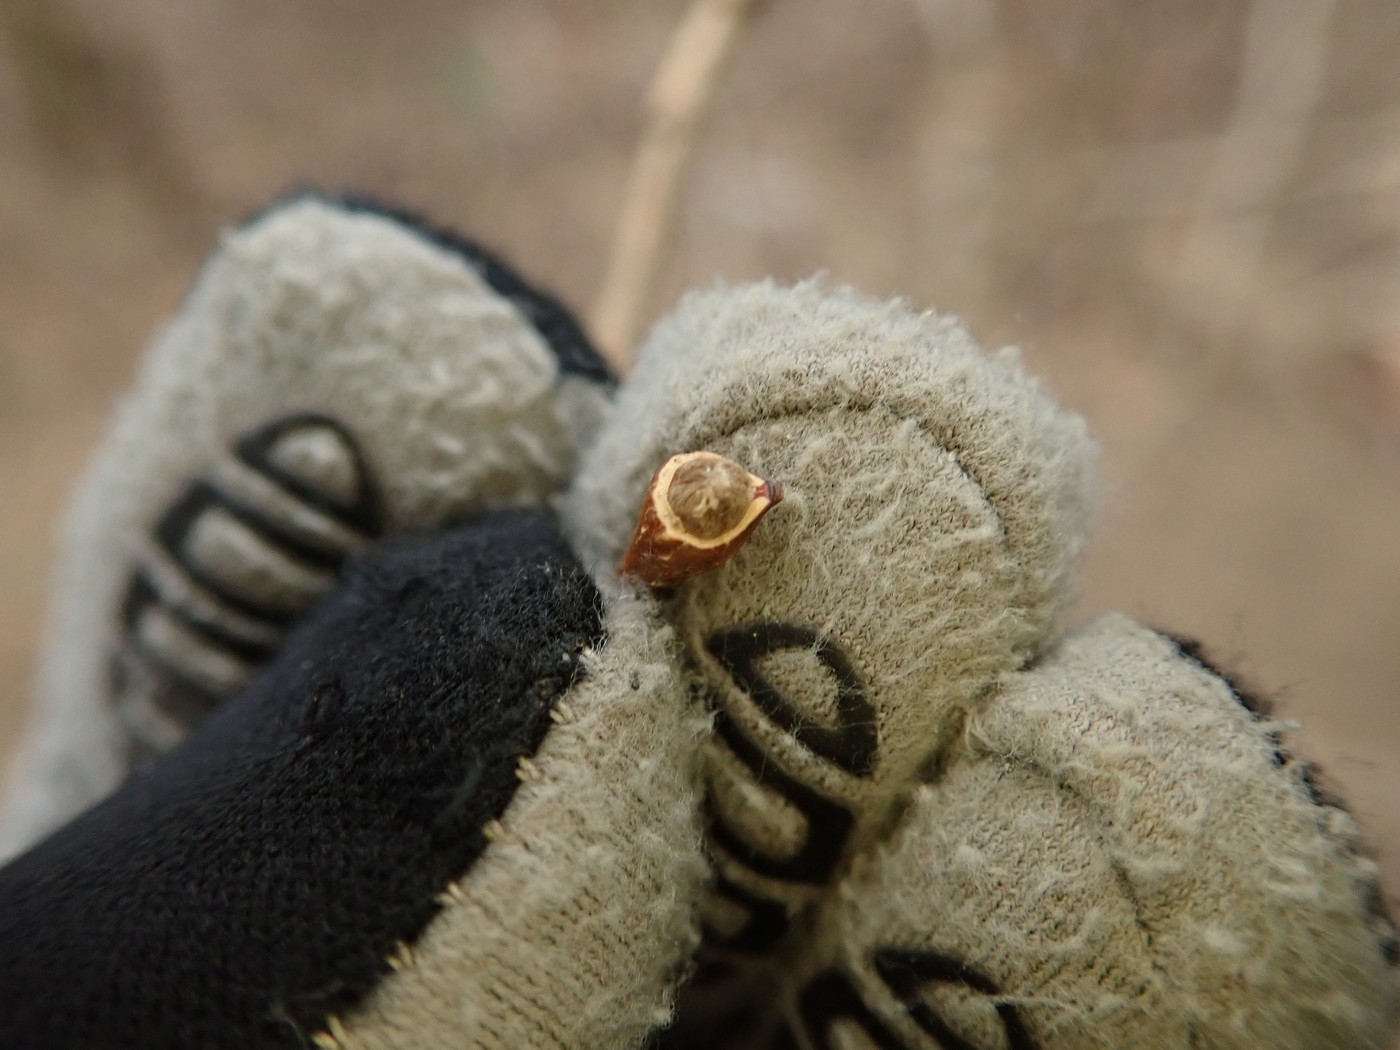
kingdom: Plantae
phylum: Tracheophyta
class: Magnoliopsida
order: Malvales
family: Thymelaeaceae
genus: Dirca
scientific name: Dirca palustris
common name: Leatherwood
